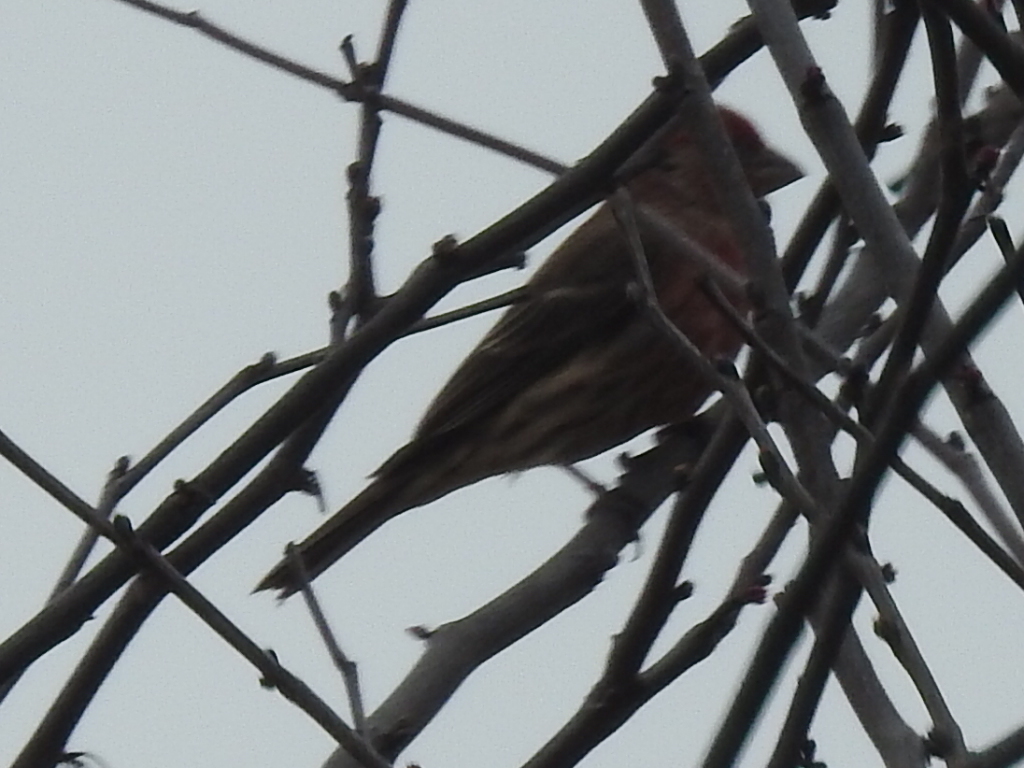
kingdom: Animalia
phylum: Chordata
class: Aves
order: Passeriformes
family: Fringillidae
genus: Haemorhous
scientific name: Haemorhous mexicanus
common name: House finch
